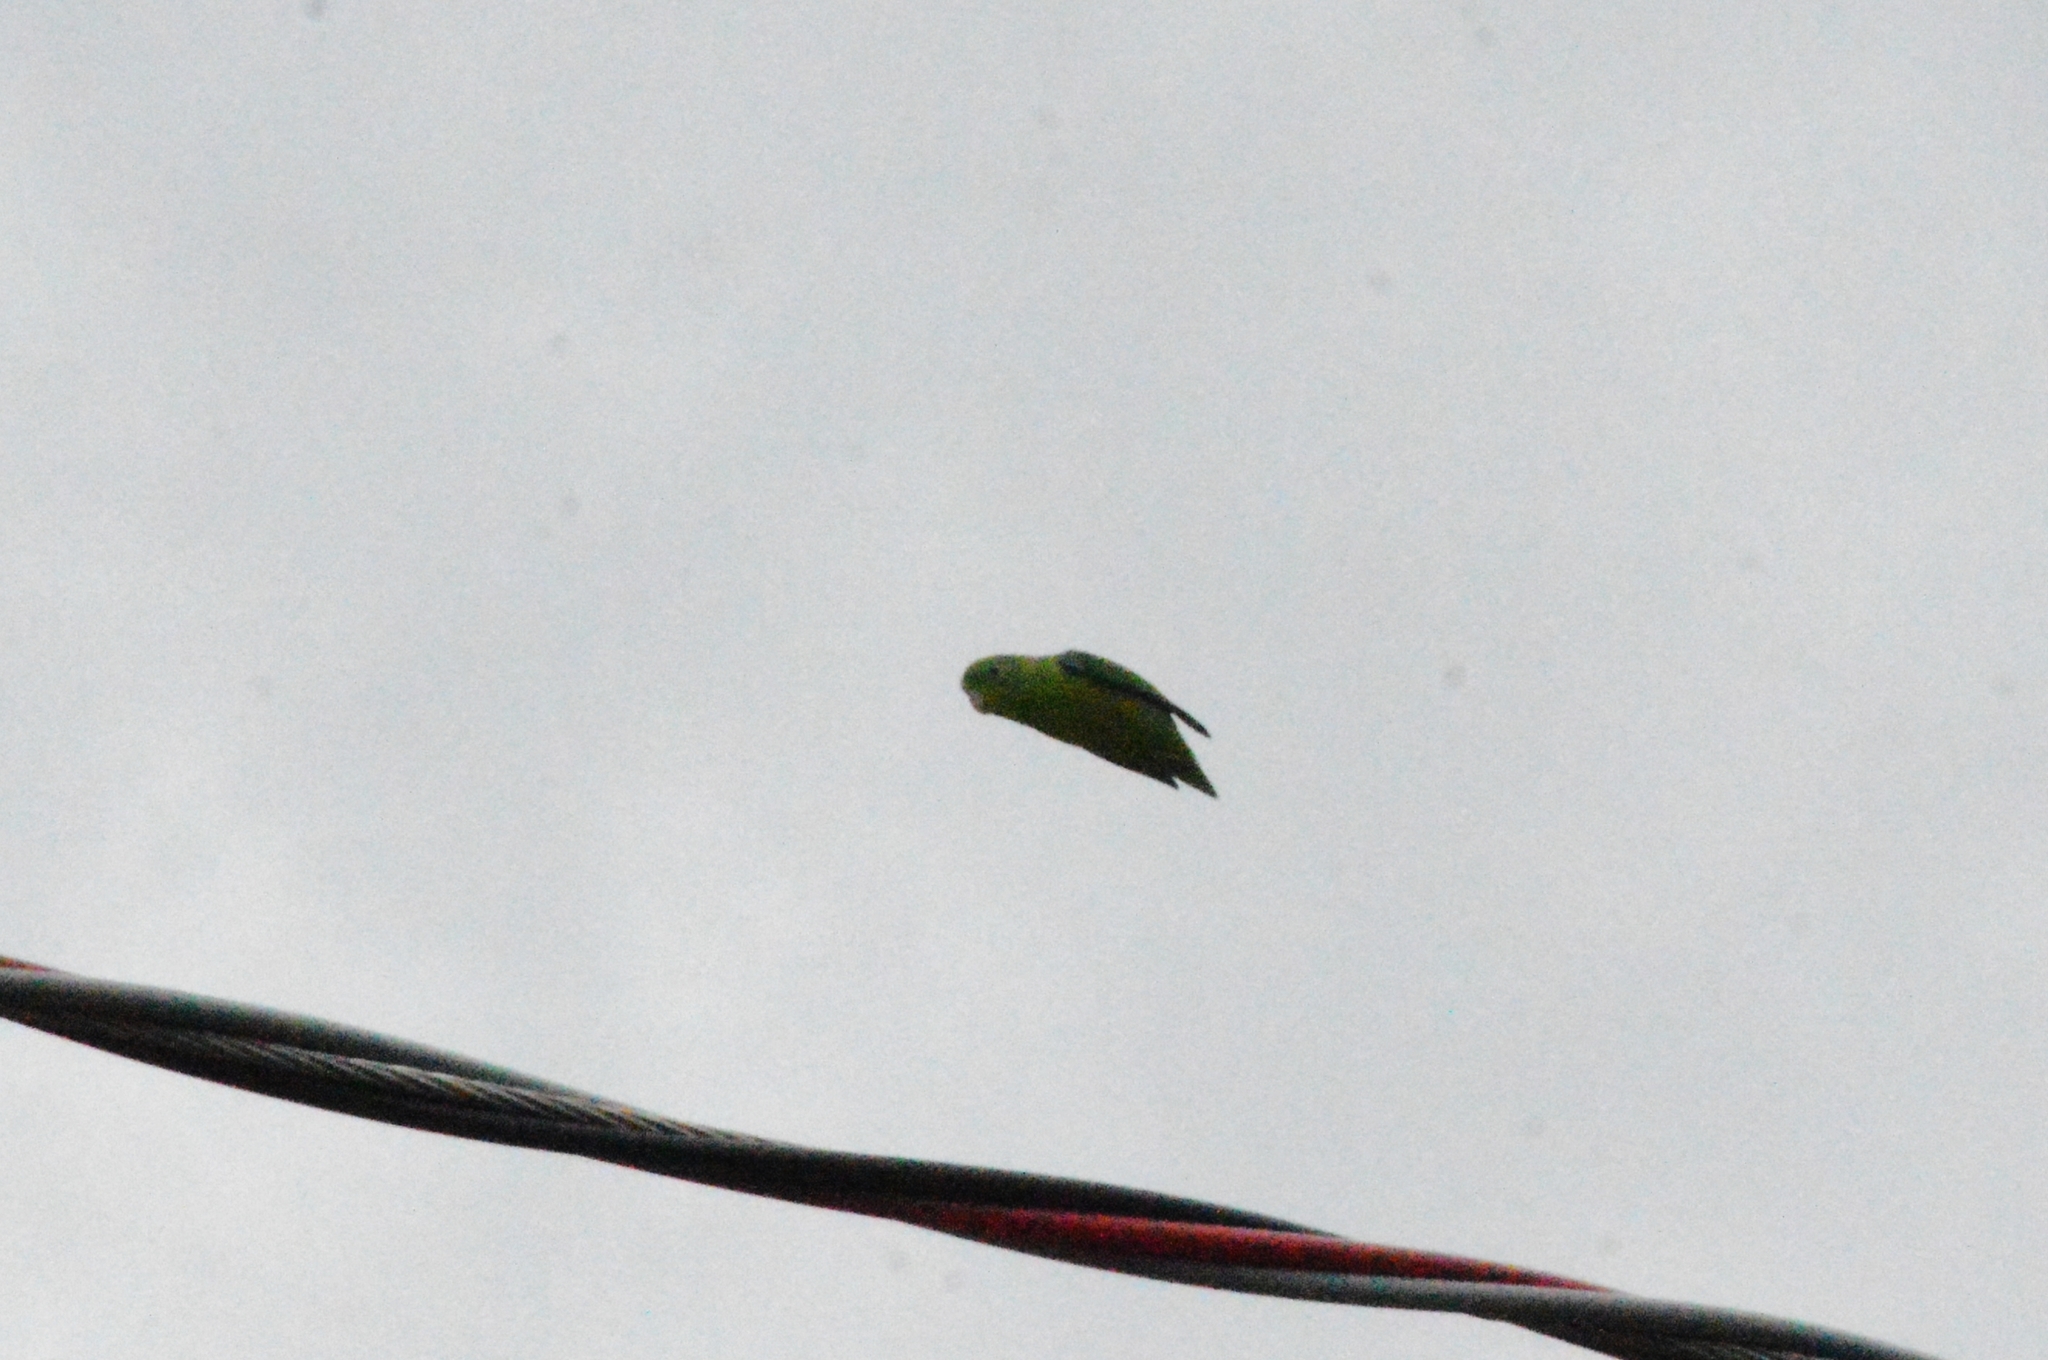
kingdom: Animalia
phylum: Chordata
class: Aves
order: Psittaciformes
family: Psittacidae
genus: Forpus
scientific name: Forpus xanthopterygius
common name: Blue-winged parrotlet
